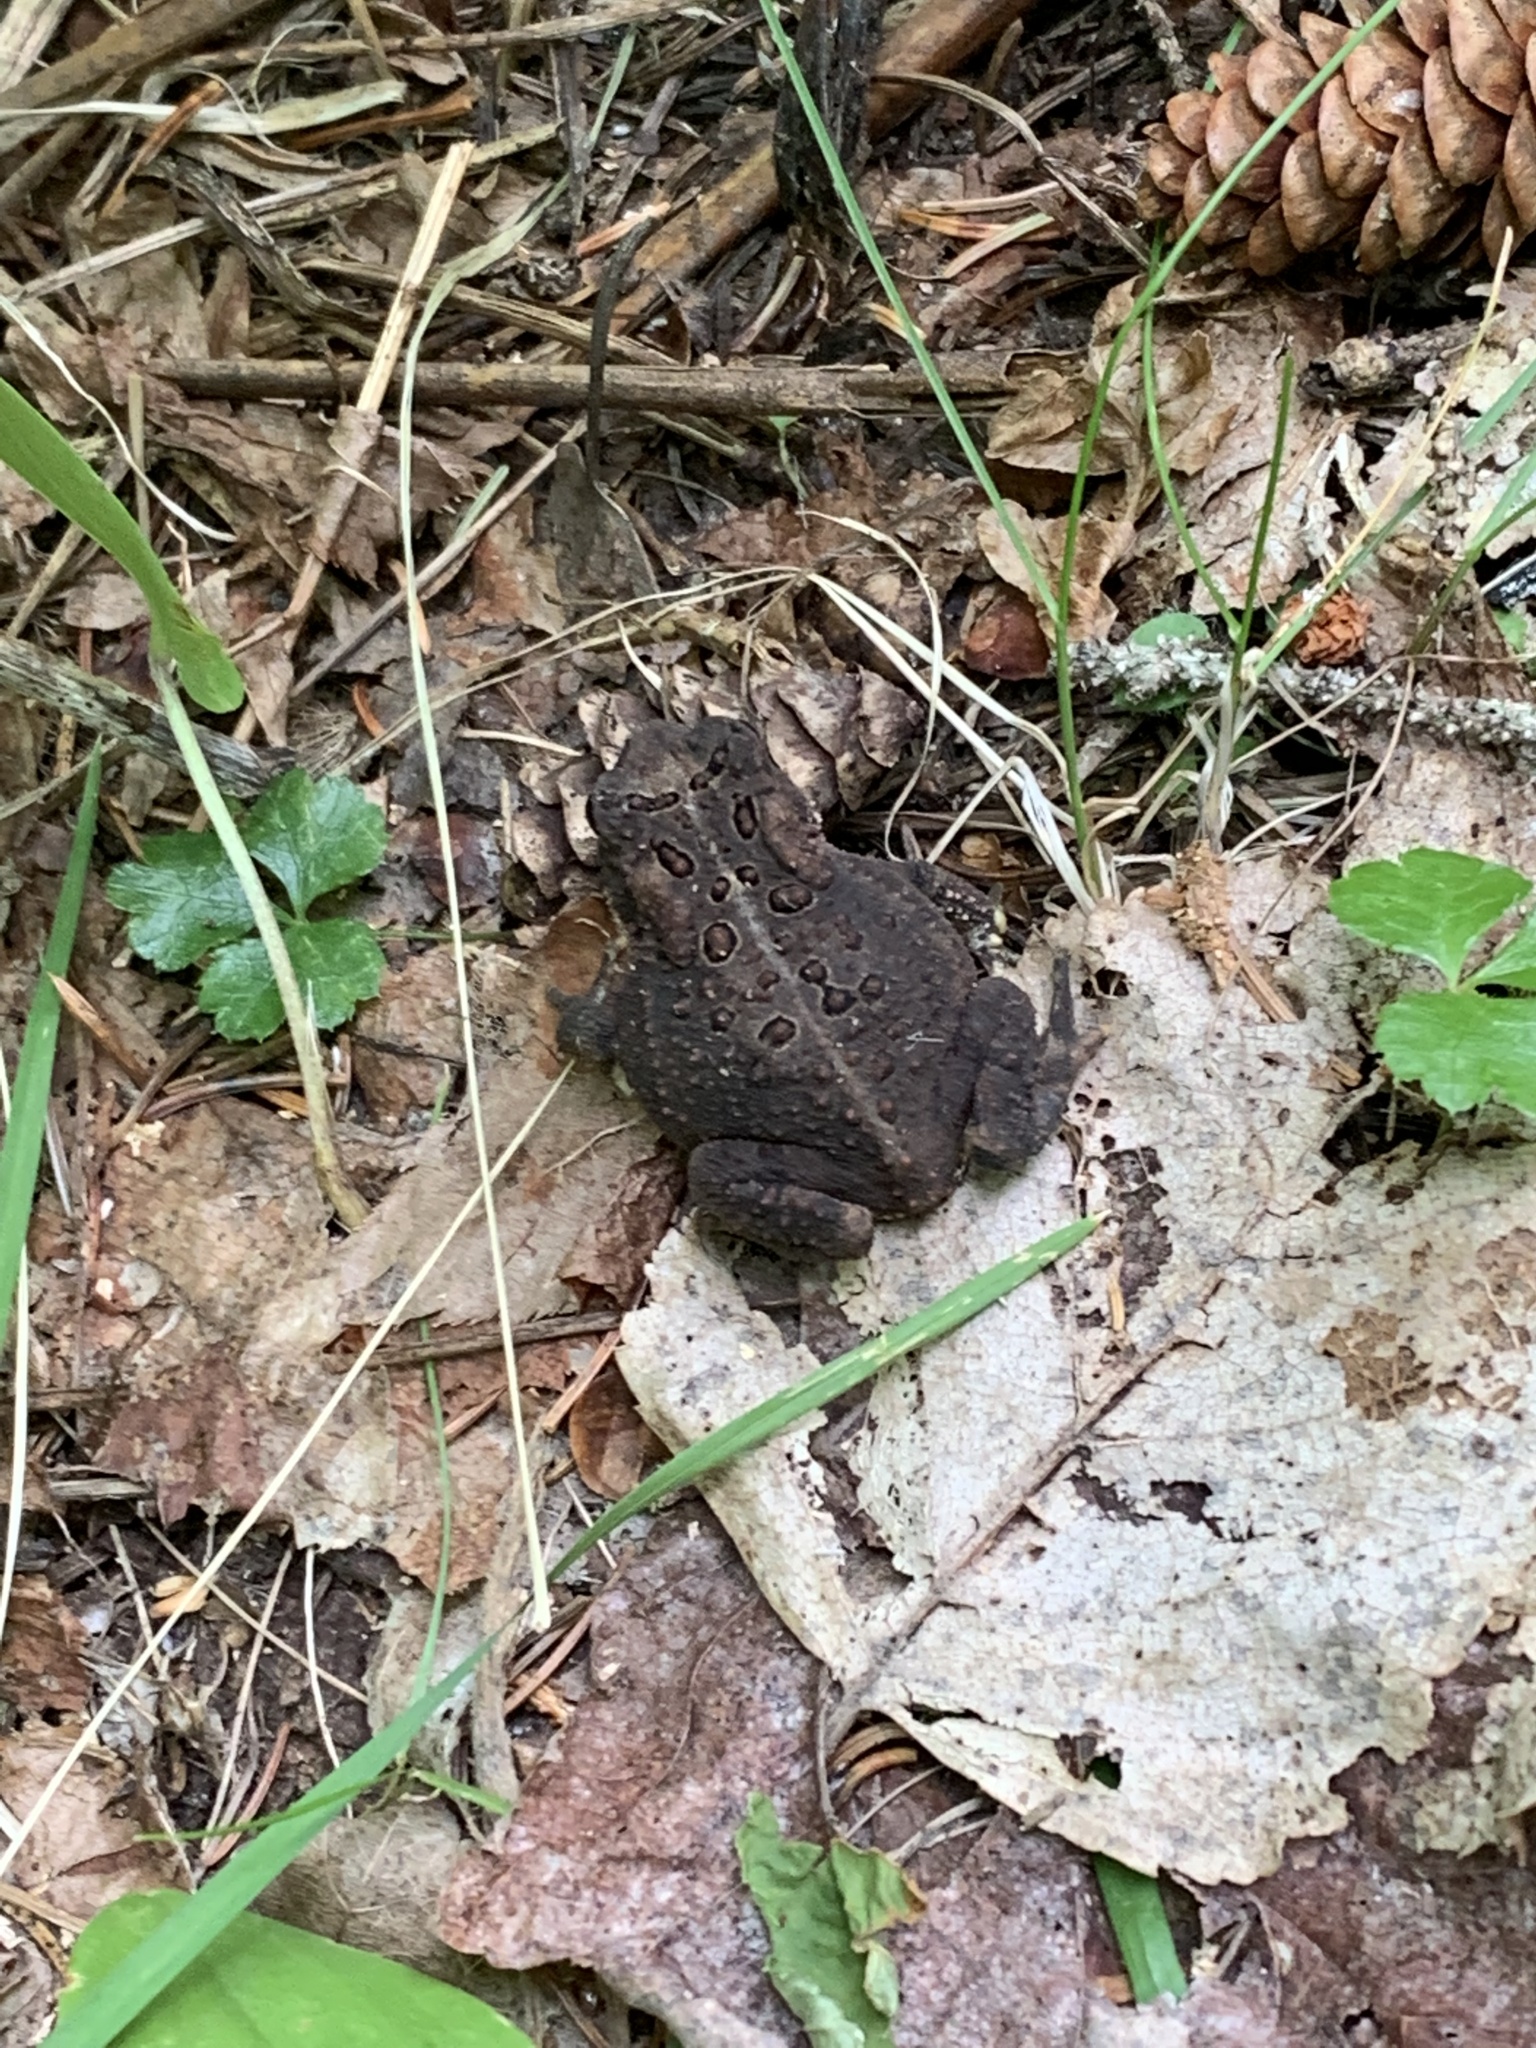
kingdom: Animalia
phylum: Chordata
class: Amphibia
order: Anura
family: Bufonidae
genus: Anaxyrus
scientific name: Anaxyrus americanus
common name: American toad
